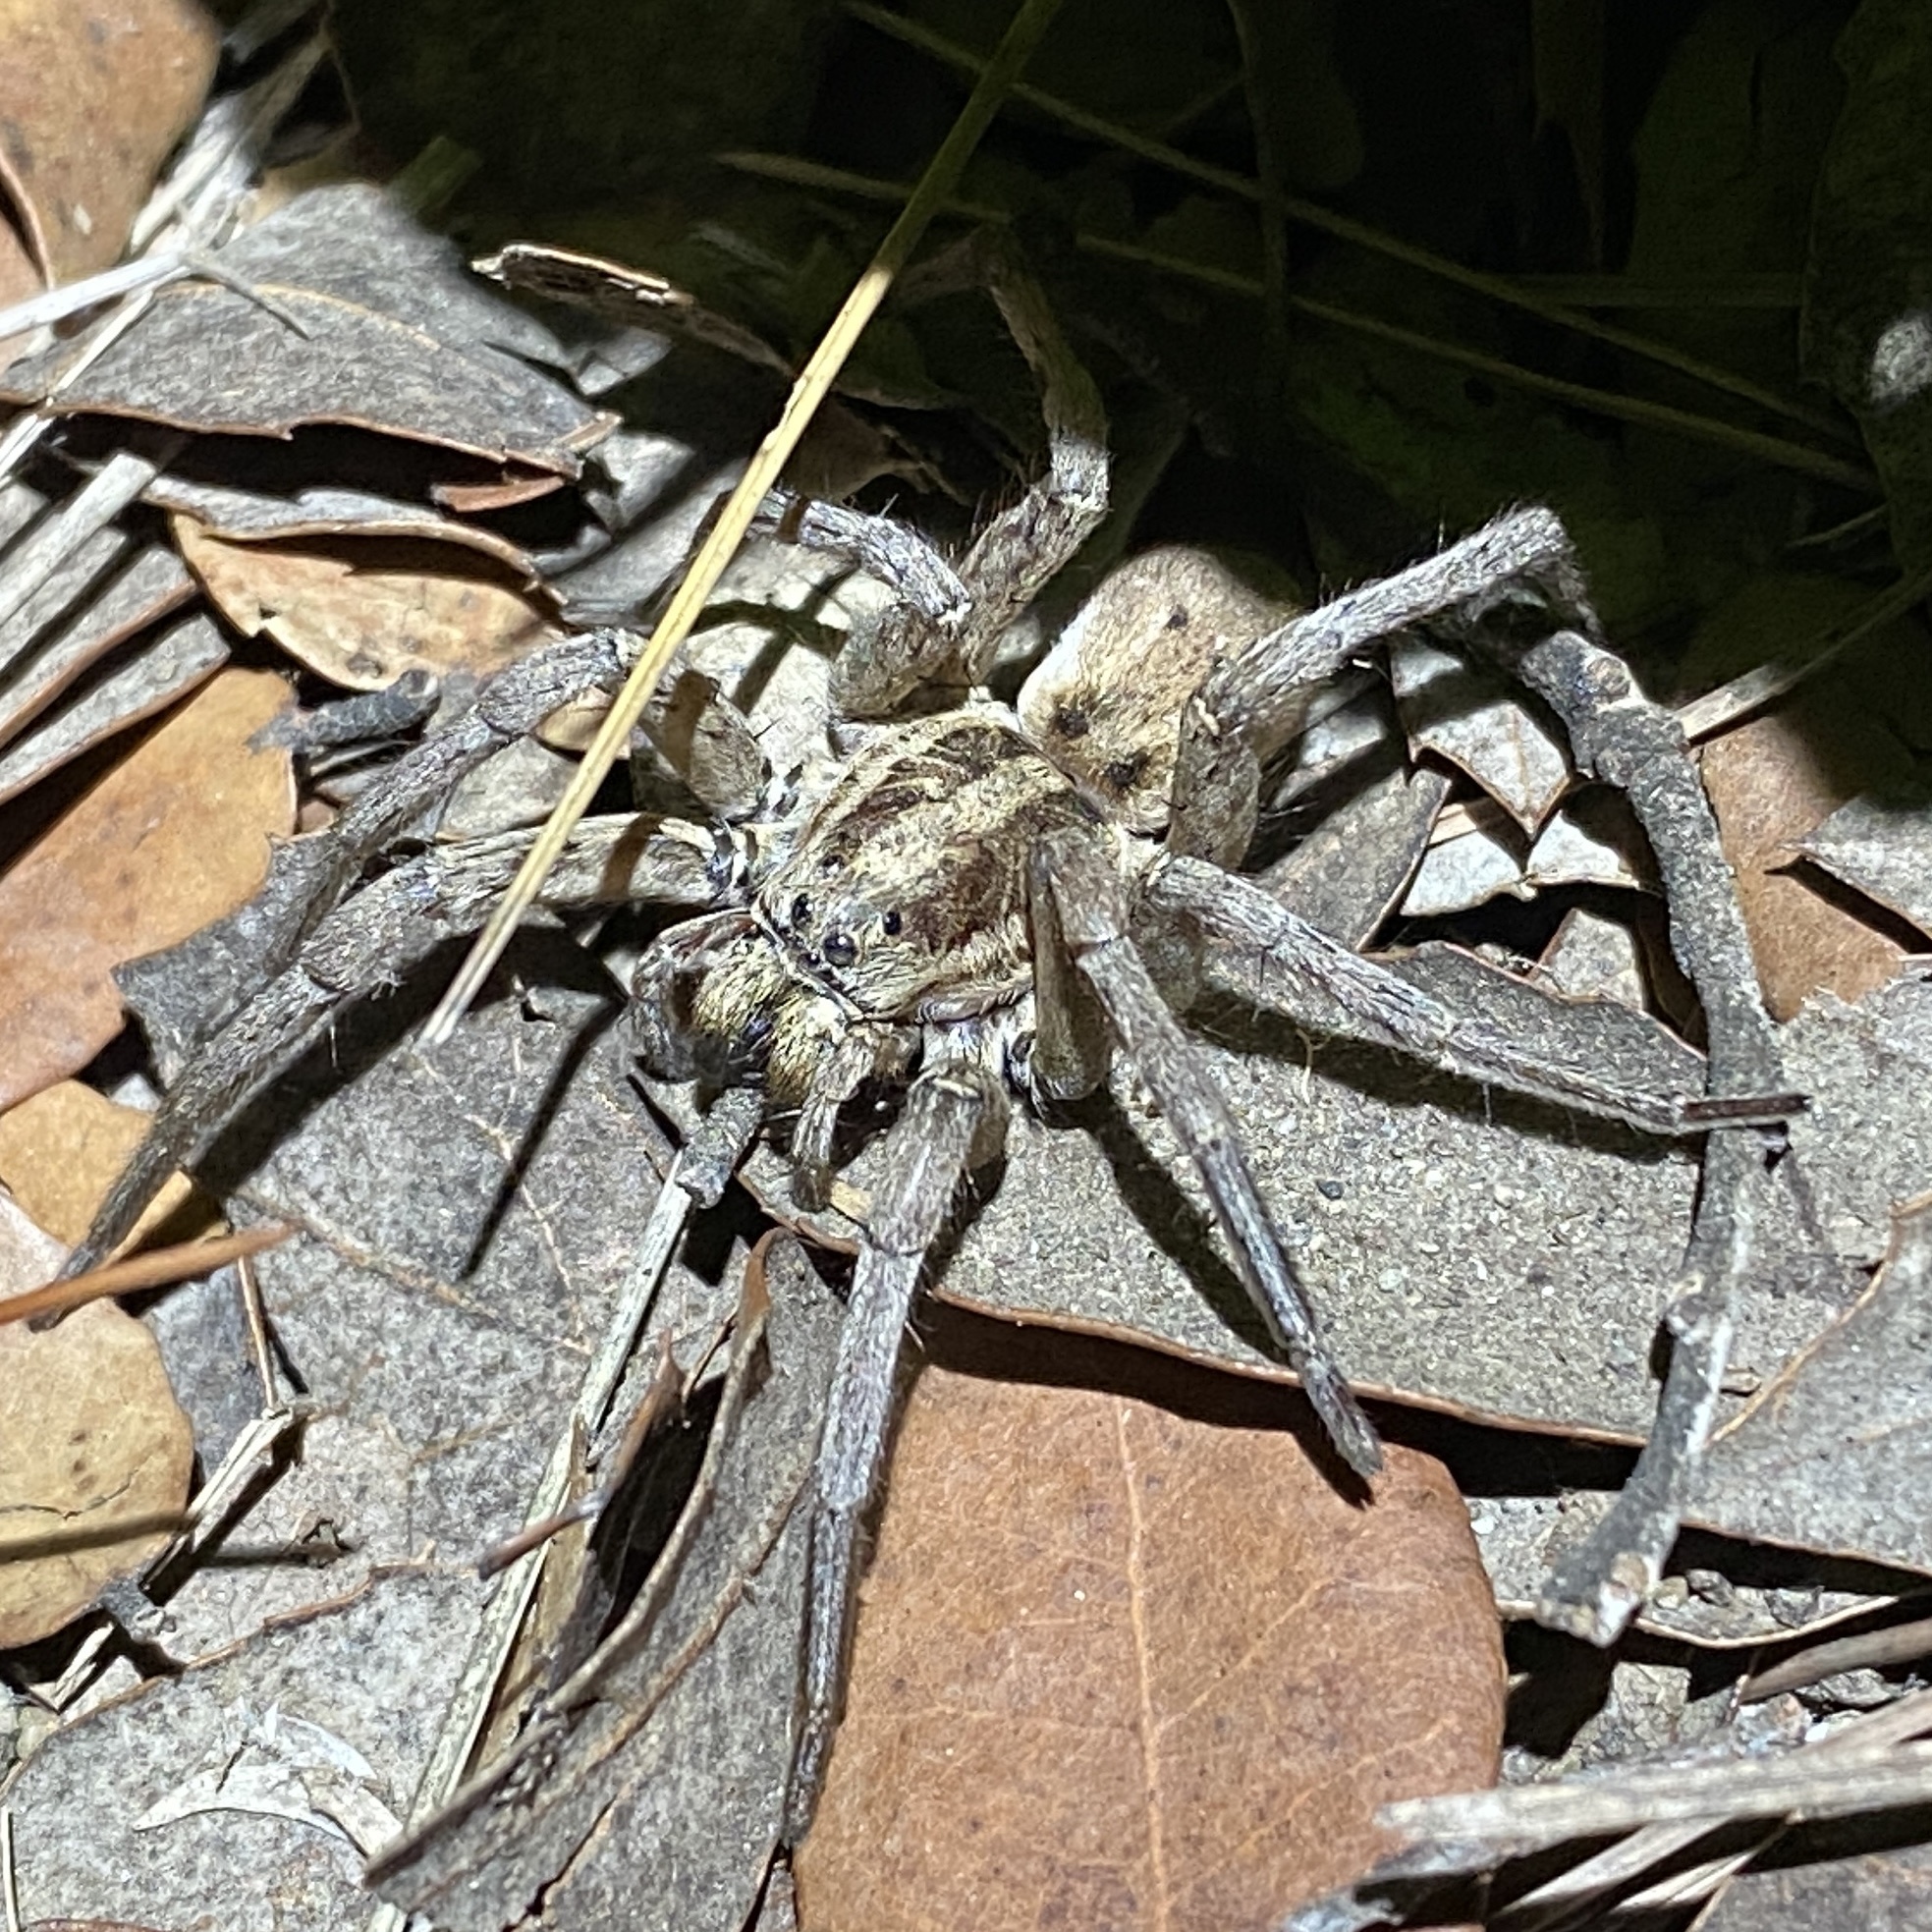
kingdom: Animalia
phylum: Arthropoda
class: Arachnida
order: Araneae
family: Lycosidae
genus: Hogna
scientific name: Hogna radiata
